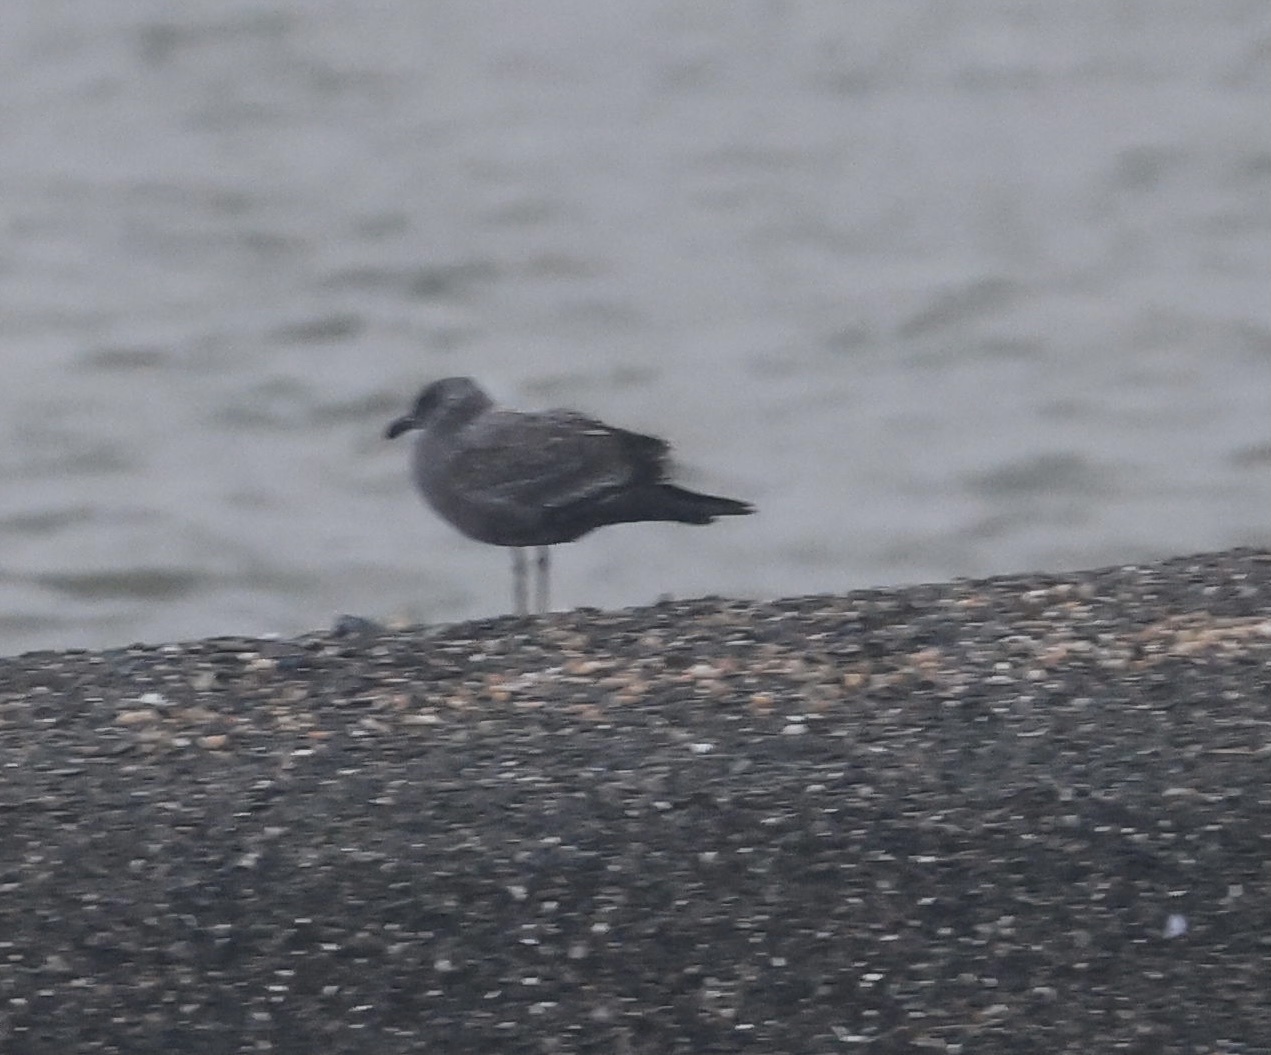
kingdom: Animalia
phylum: Chordata
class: Aves
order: Charadriiformes
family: Laridae
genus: Larus
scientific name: Larus occidentalis
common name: Western gull
